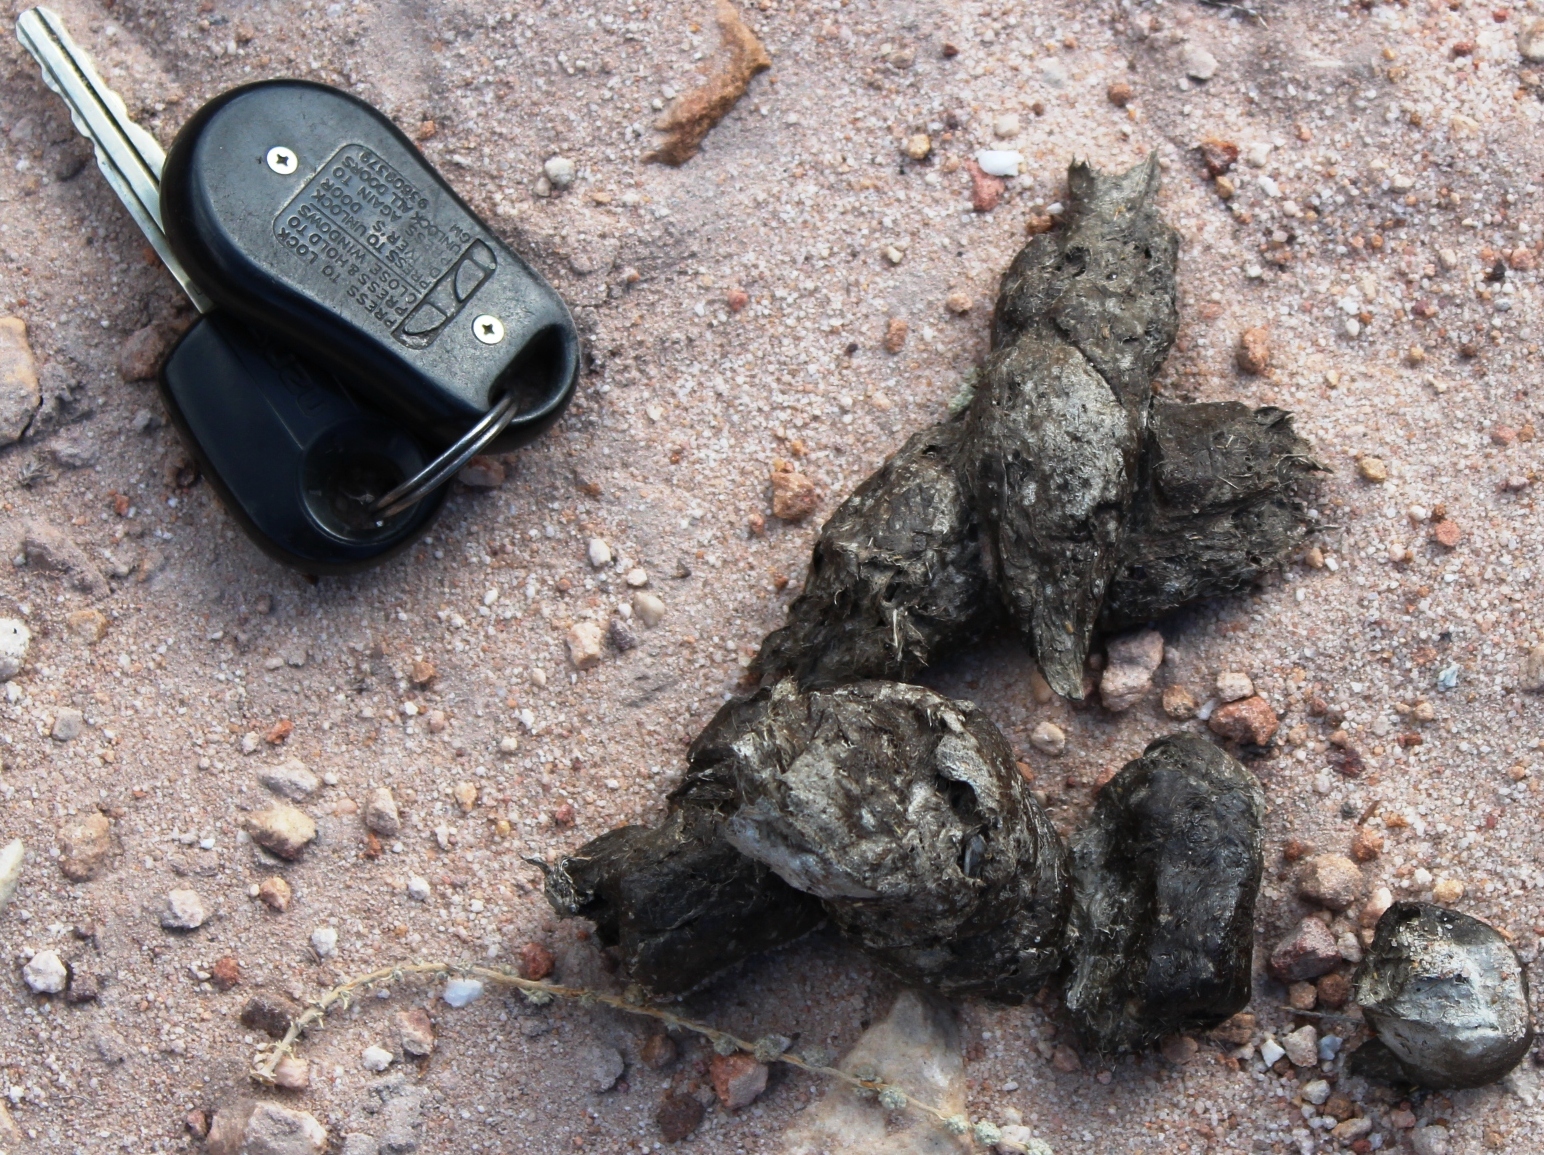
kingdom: Animalia
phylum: Chordata
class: Mammalia
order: Carnivora
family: Felidae
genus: Panthera
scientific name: Panthera pardus
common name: Leopard
